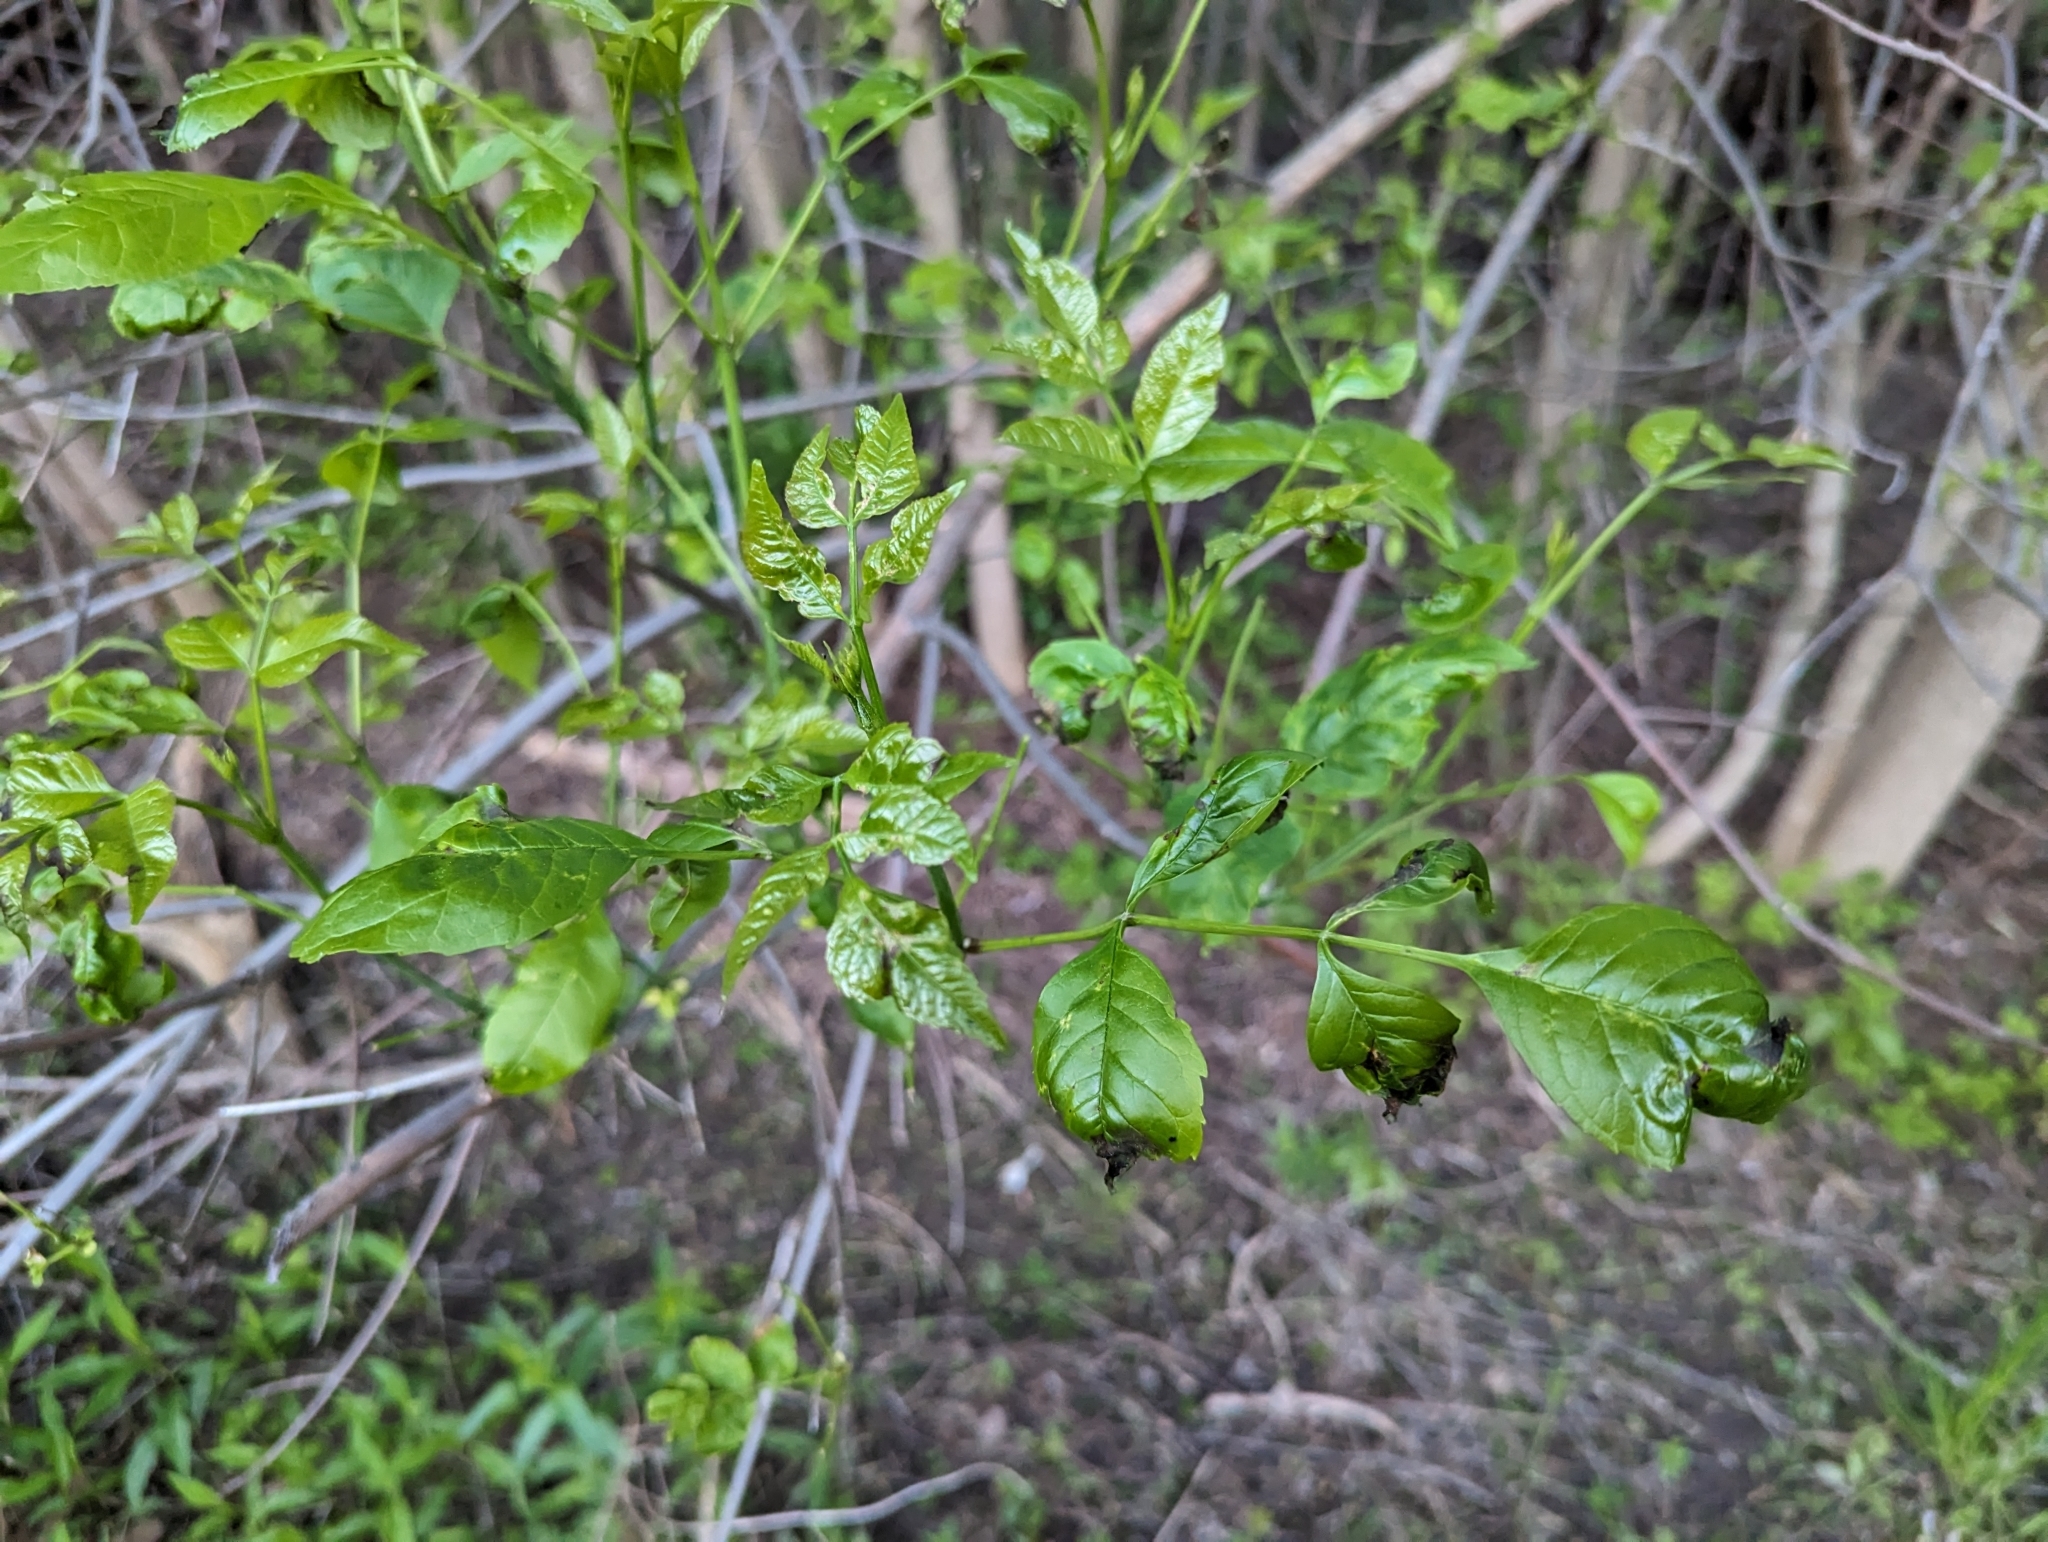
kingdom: Animalia
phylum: Arthropoda
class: Arachnida
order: Trombidiformes
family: Eriophyidae
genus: Aceria
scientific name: Aceria fraxinicola
